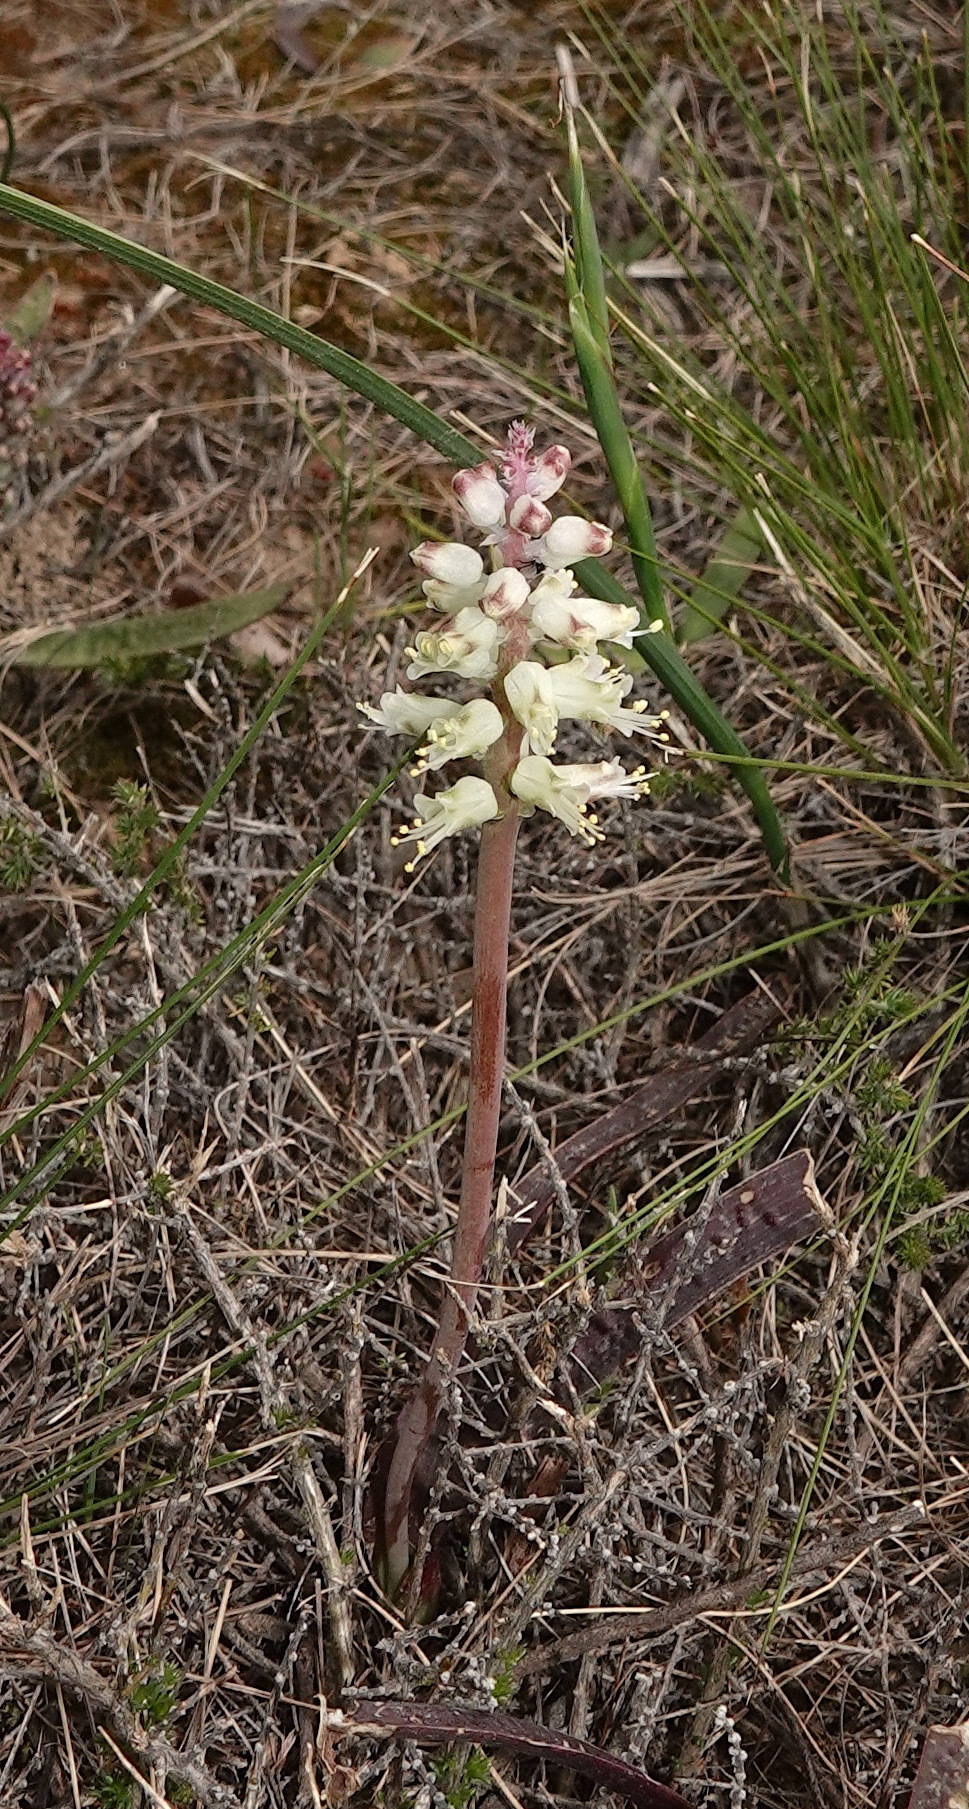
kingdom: Plantae
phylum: Tracheophyta
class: Liliopsida
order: Asparagales
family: Asparagaceae
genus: Lachenalia
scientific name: Lachenalia pallida
